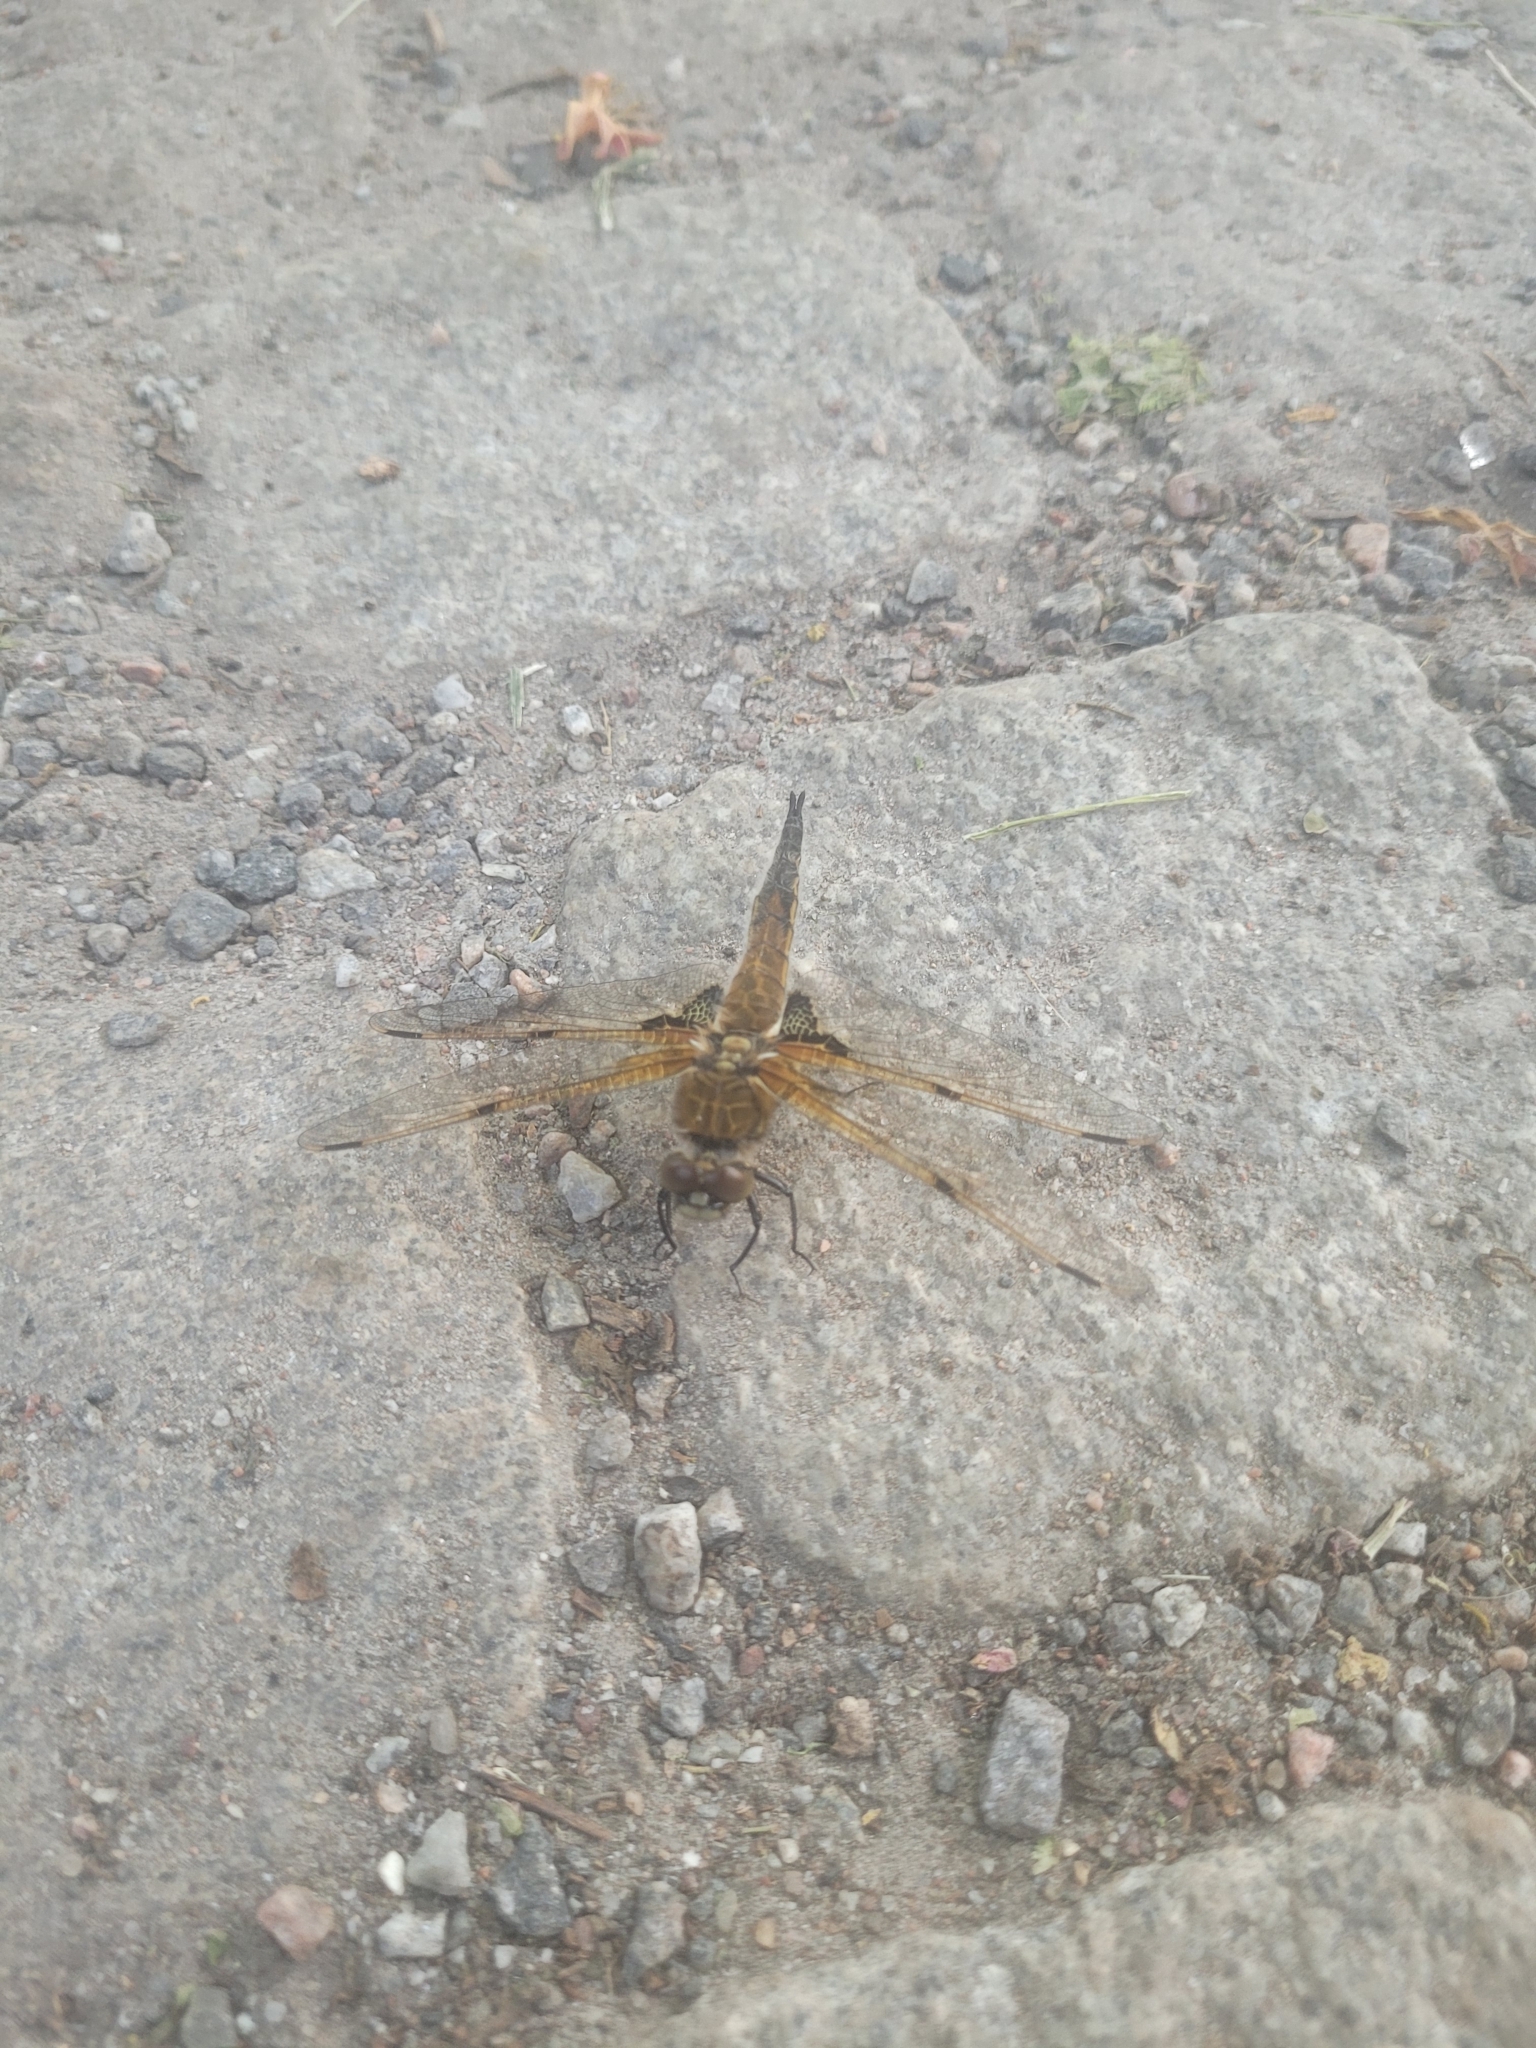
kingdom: Animalia
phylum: Arthropoda
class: Insecta
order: Odonata
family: Libellulidae
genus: Libellula
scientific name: Libellula quadrimaculata
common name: Four-spotted chaser
